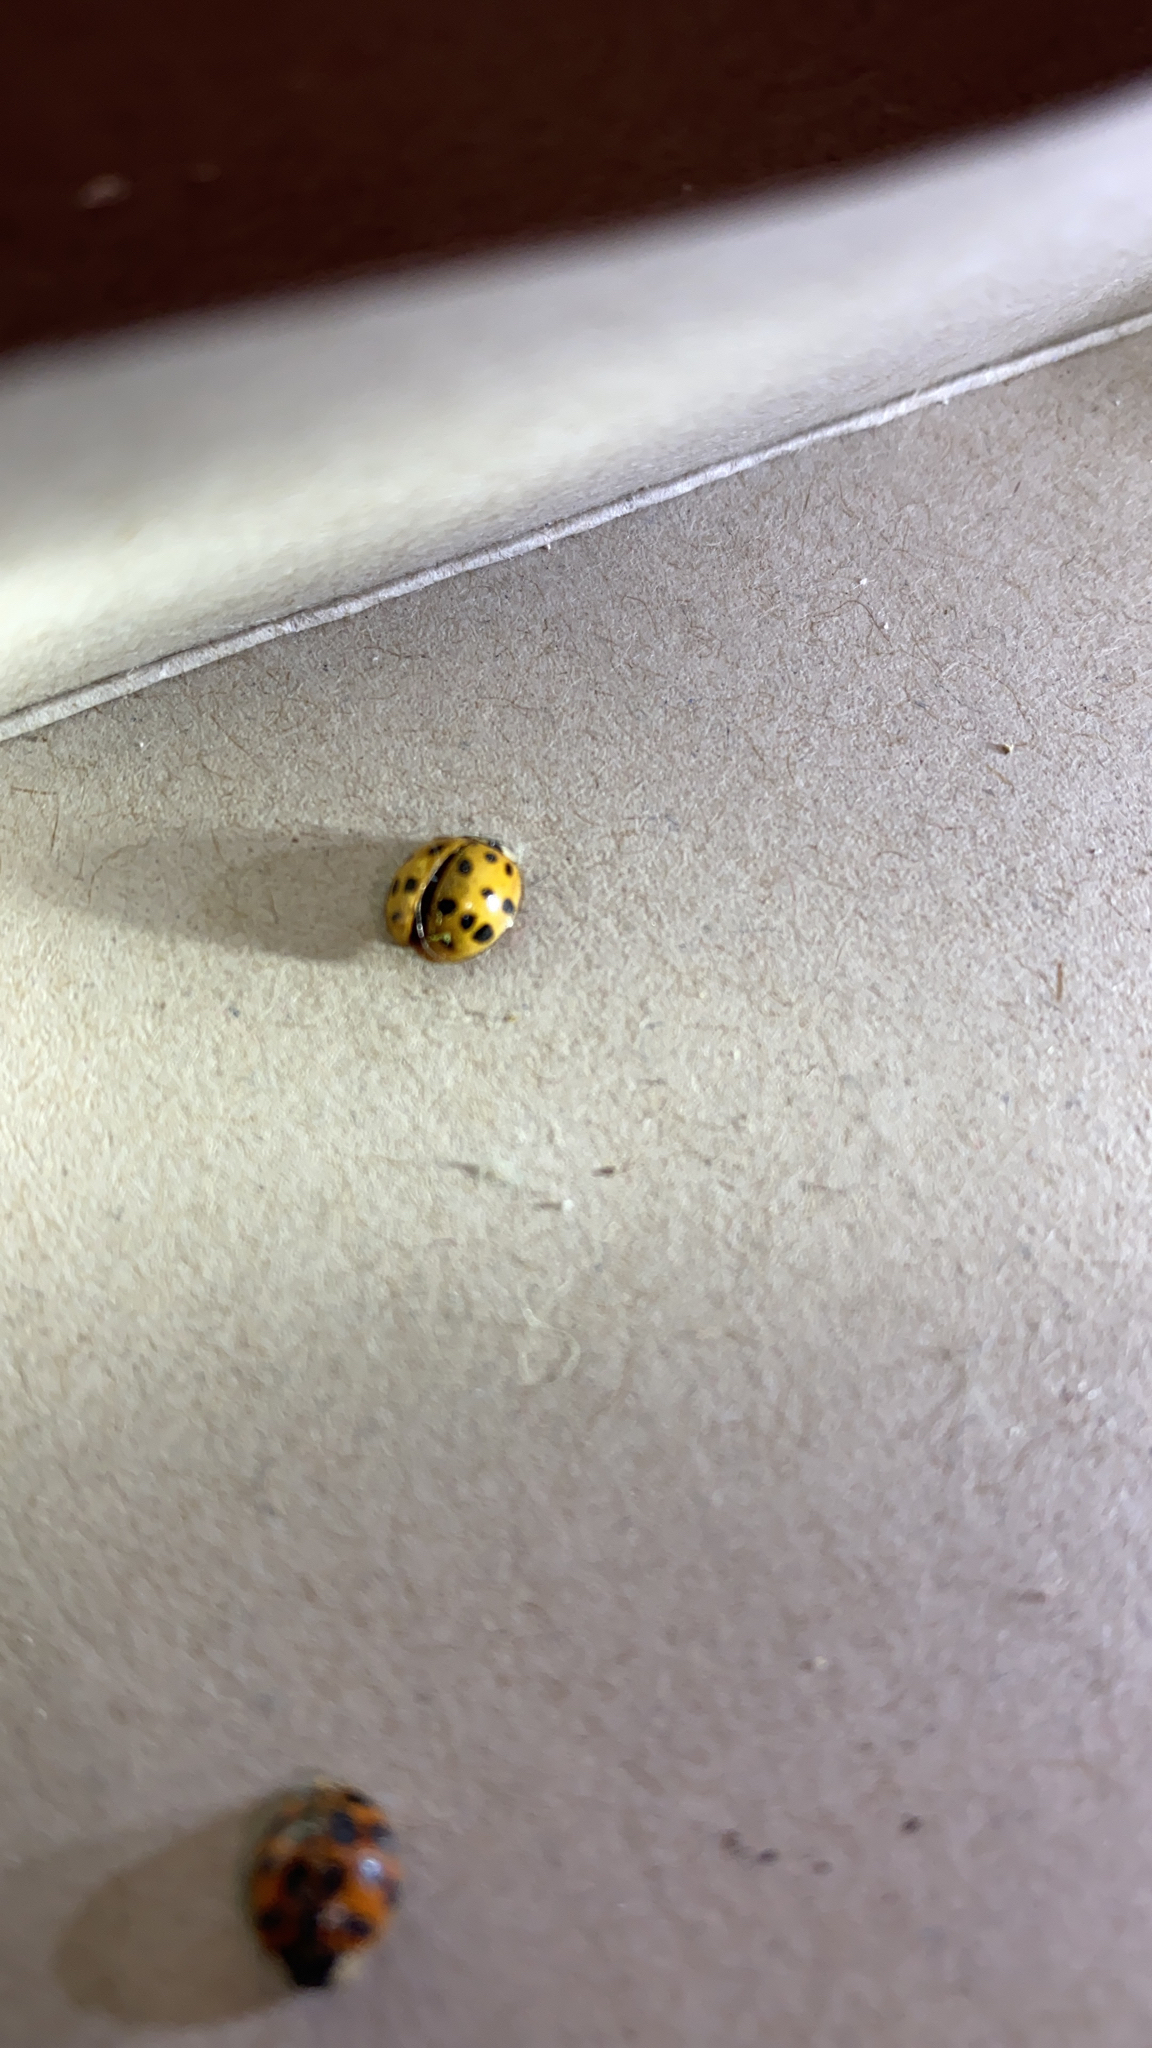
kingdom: Animalia
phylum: Arthropoda
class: Insecta
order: Coleoptera
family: Coccinellidae
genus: Harmonia
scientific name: Harmonia axyridis
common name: Harlequin ladybird
